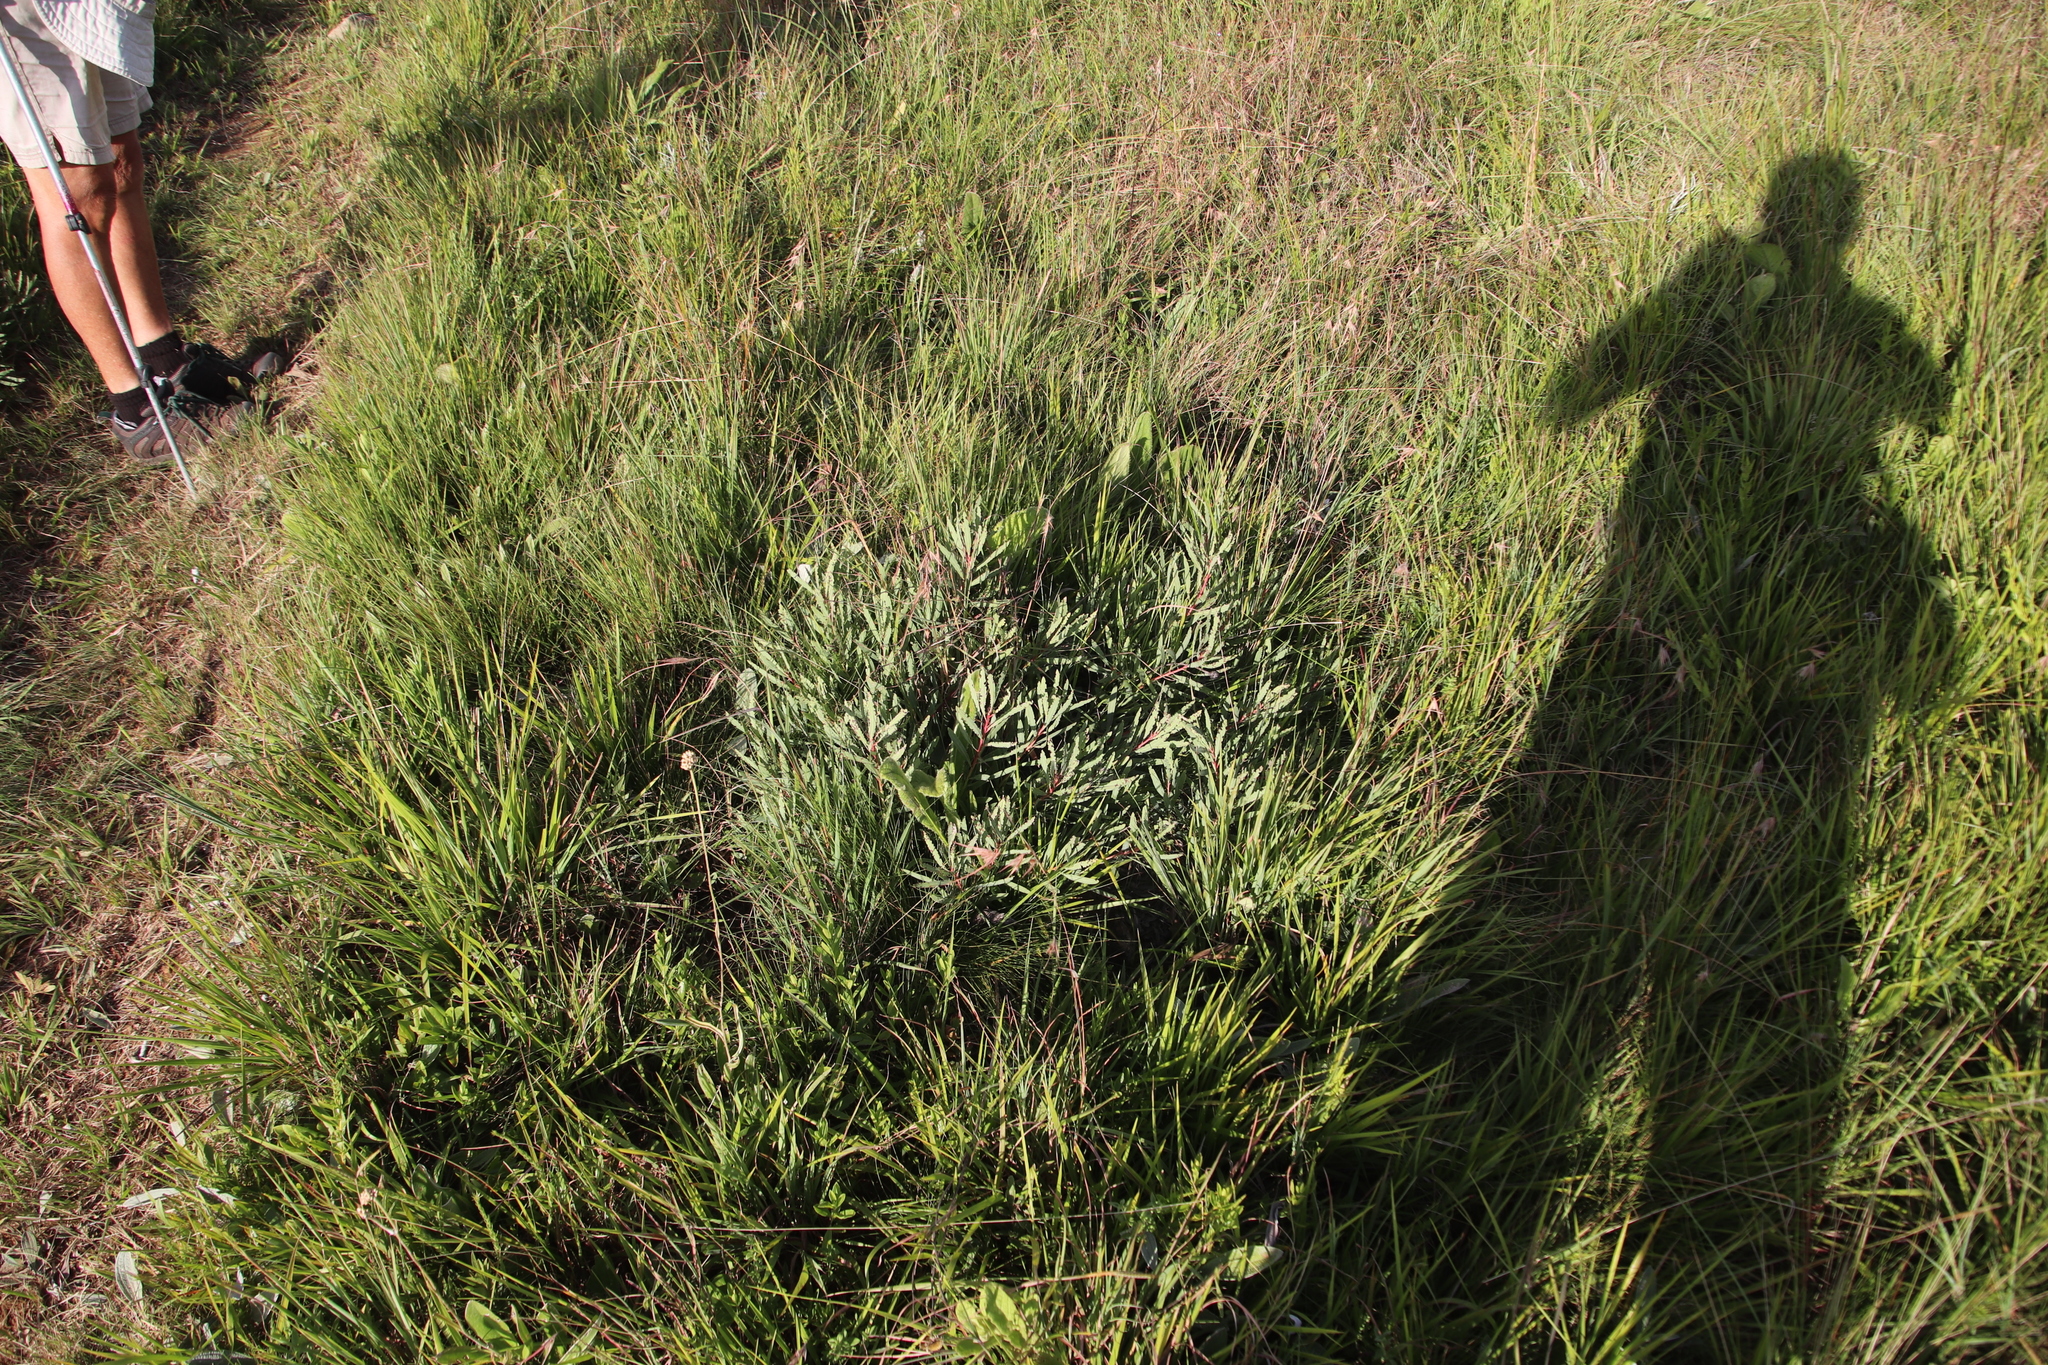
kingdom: Plantae
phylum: Tracheophyta
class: Magnoliopsida
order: Proteales
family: Proteaceae
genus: Protea
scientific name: Protea simplex
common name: Dwarf grassveld sugarbush
